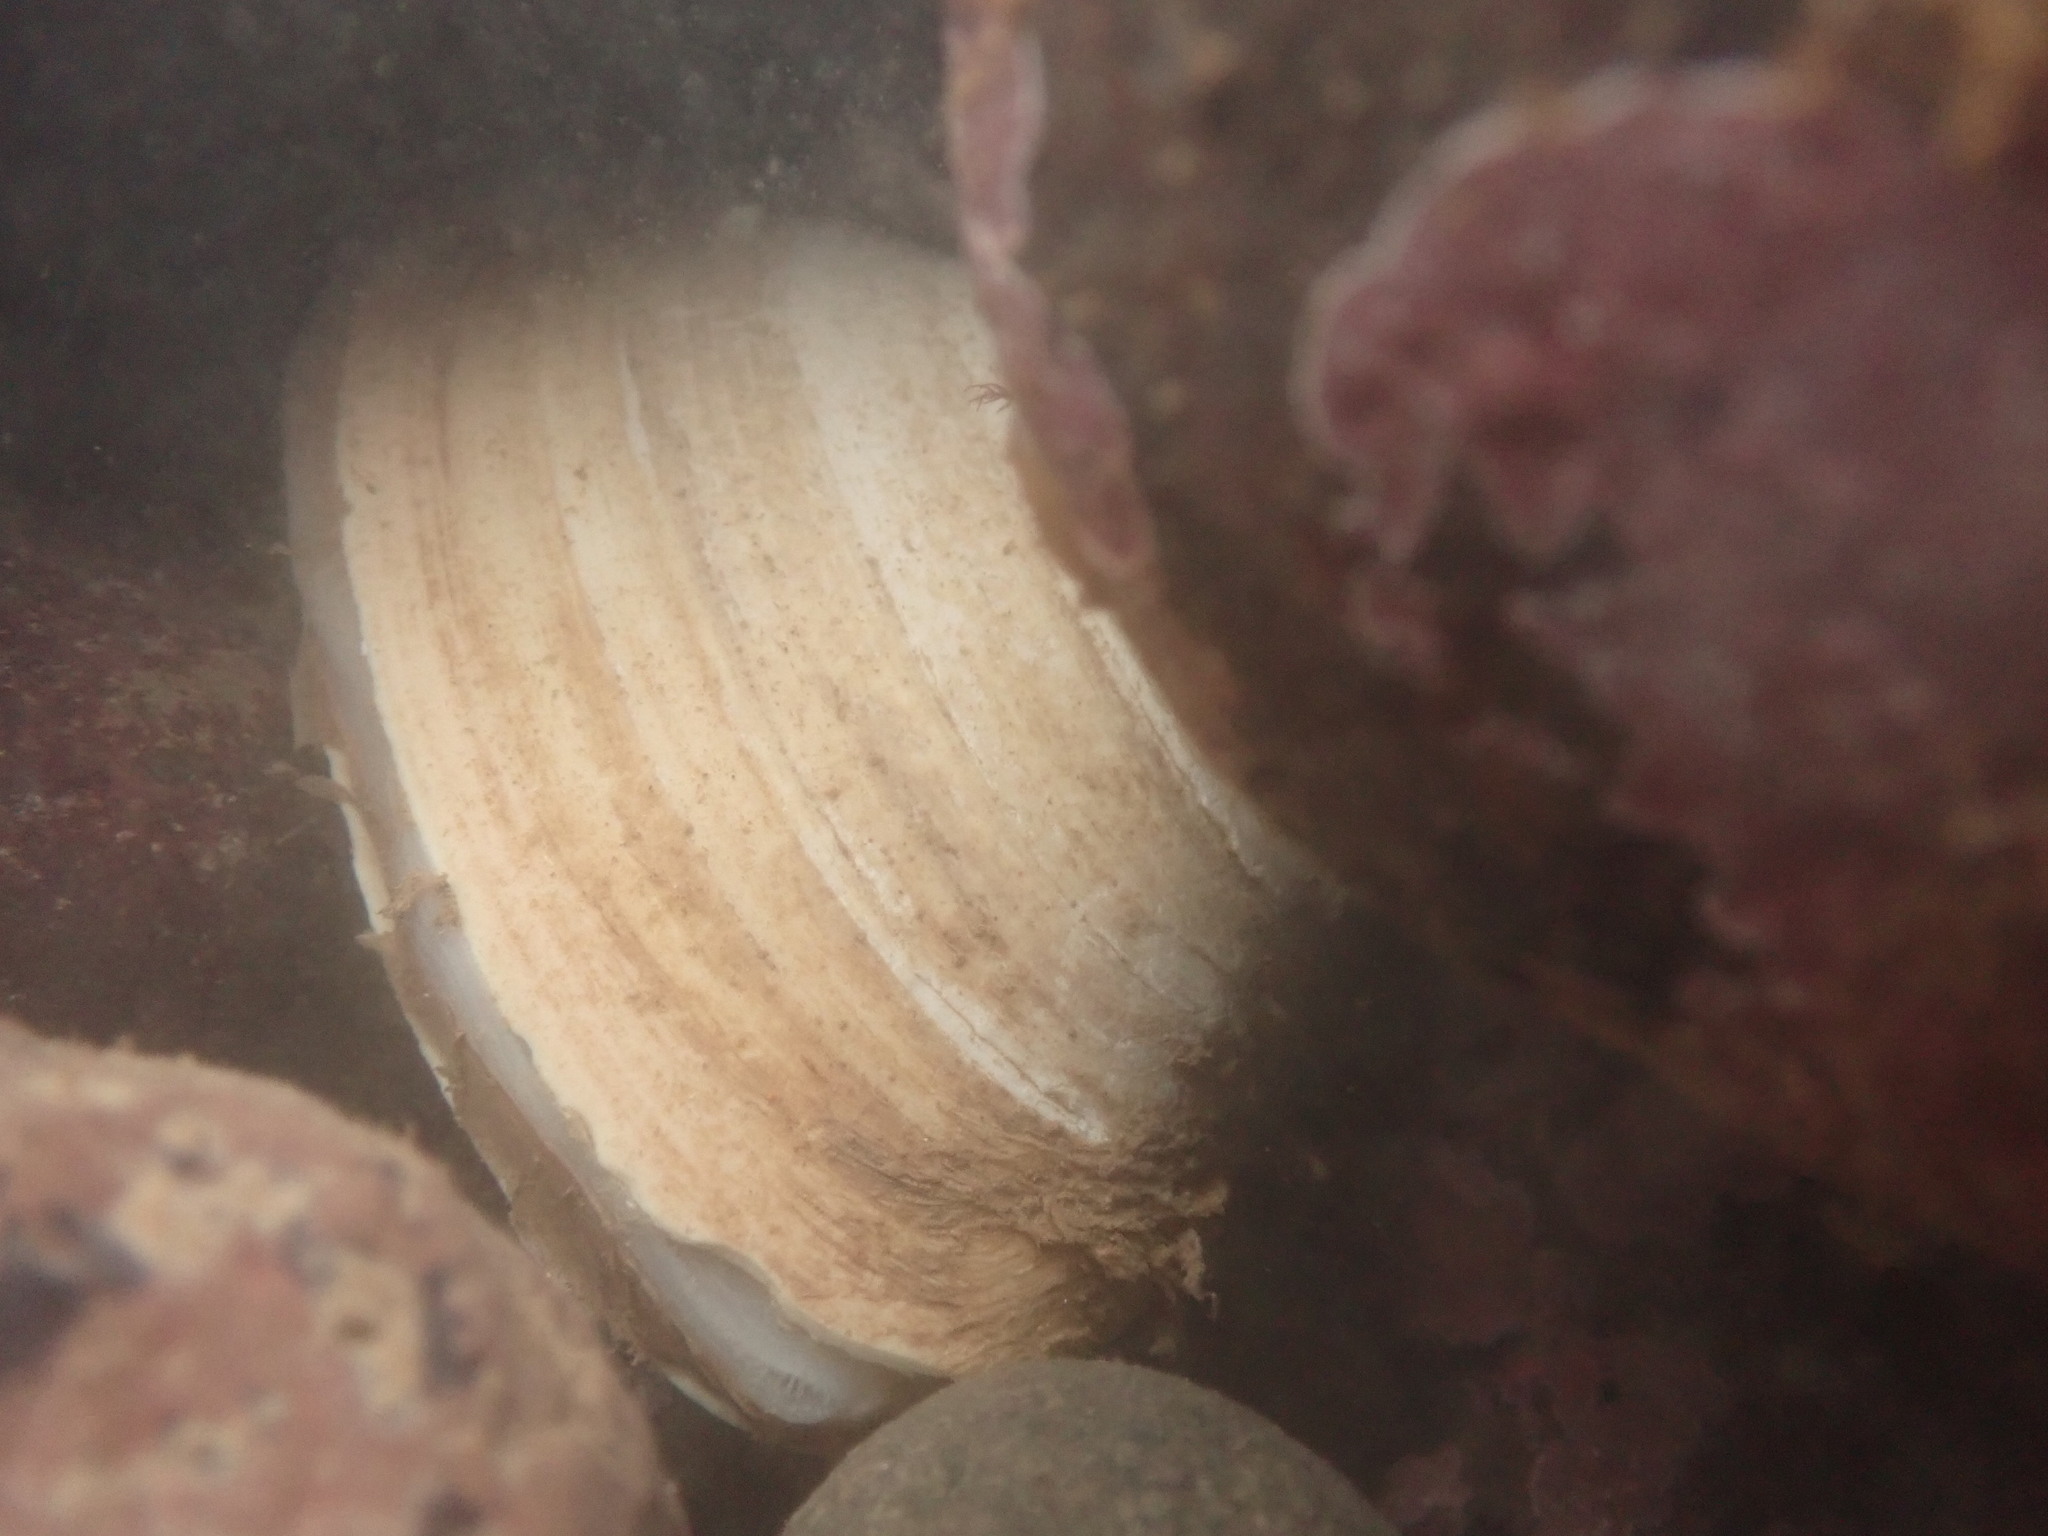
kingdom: Animalia
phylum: Mollusca
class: Bivalvia
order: Venerida
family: Mactridae
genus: Spisula
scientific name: Spisula solidissima
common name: Atlantic surf clam
